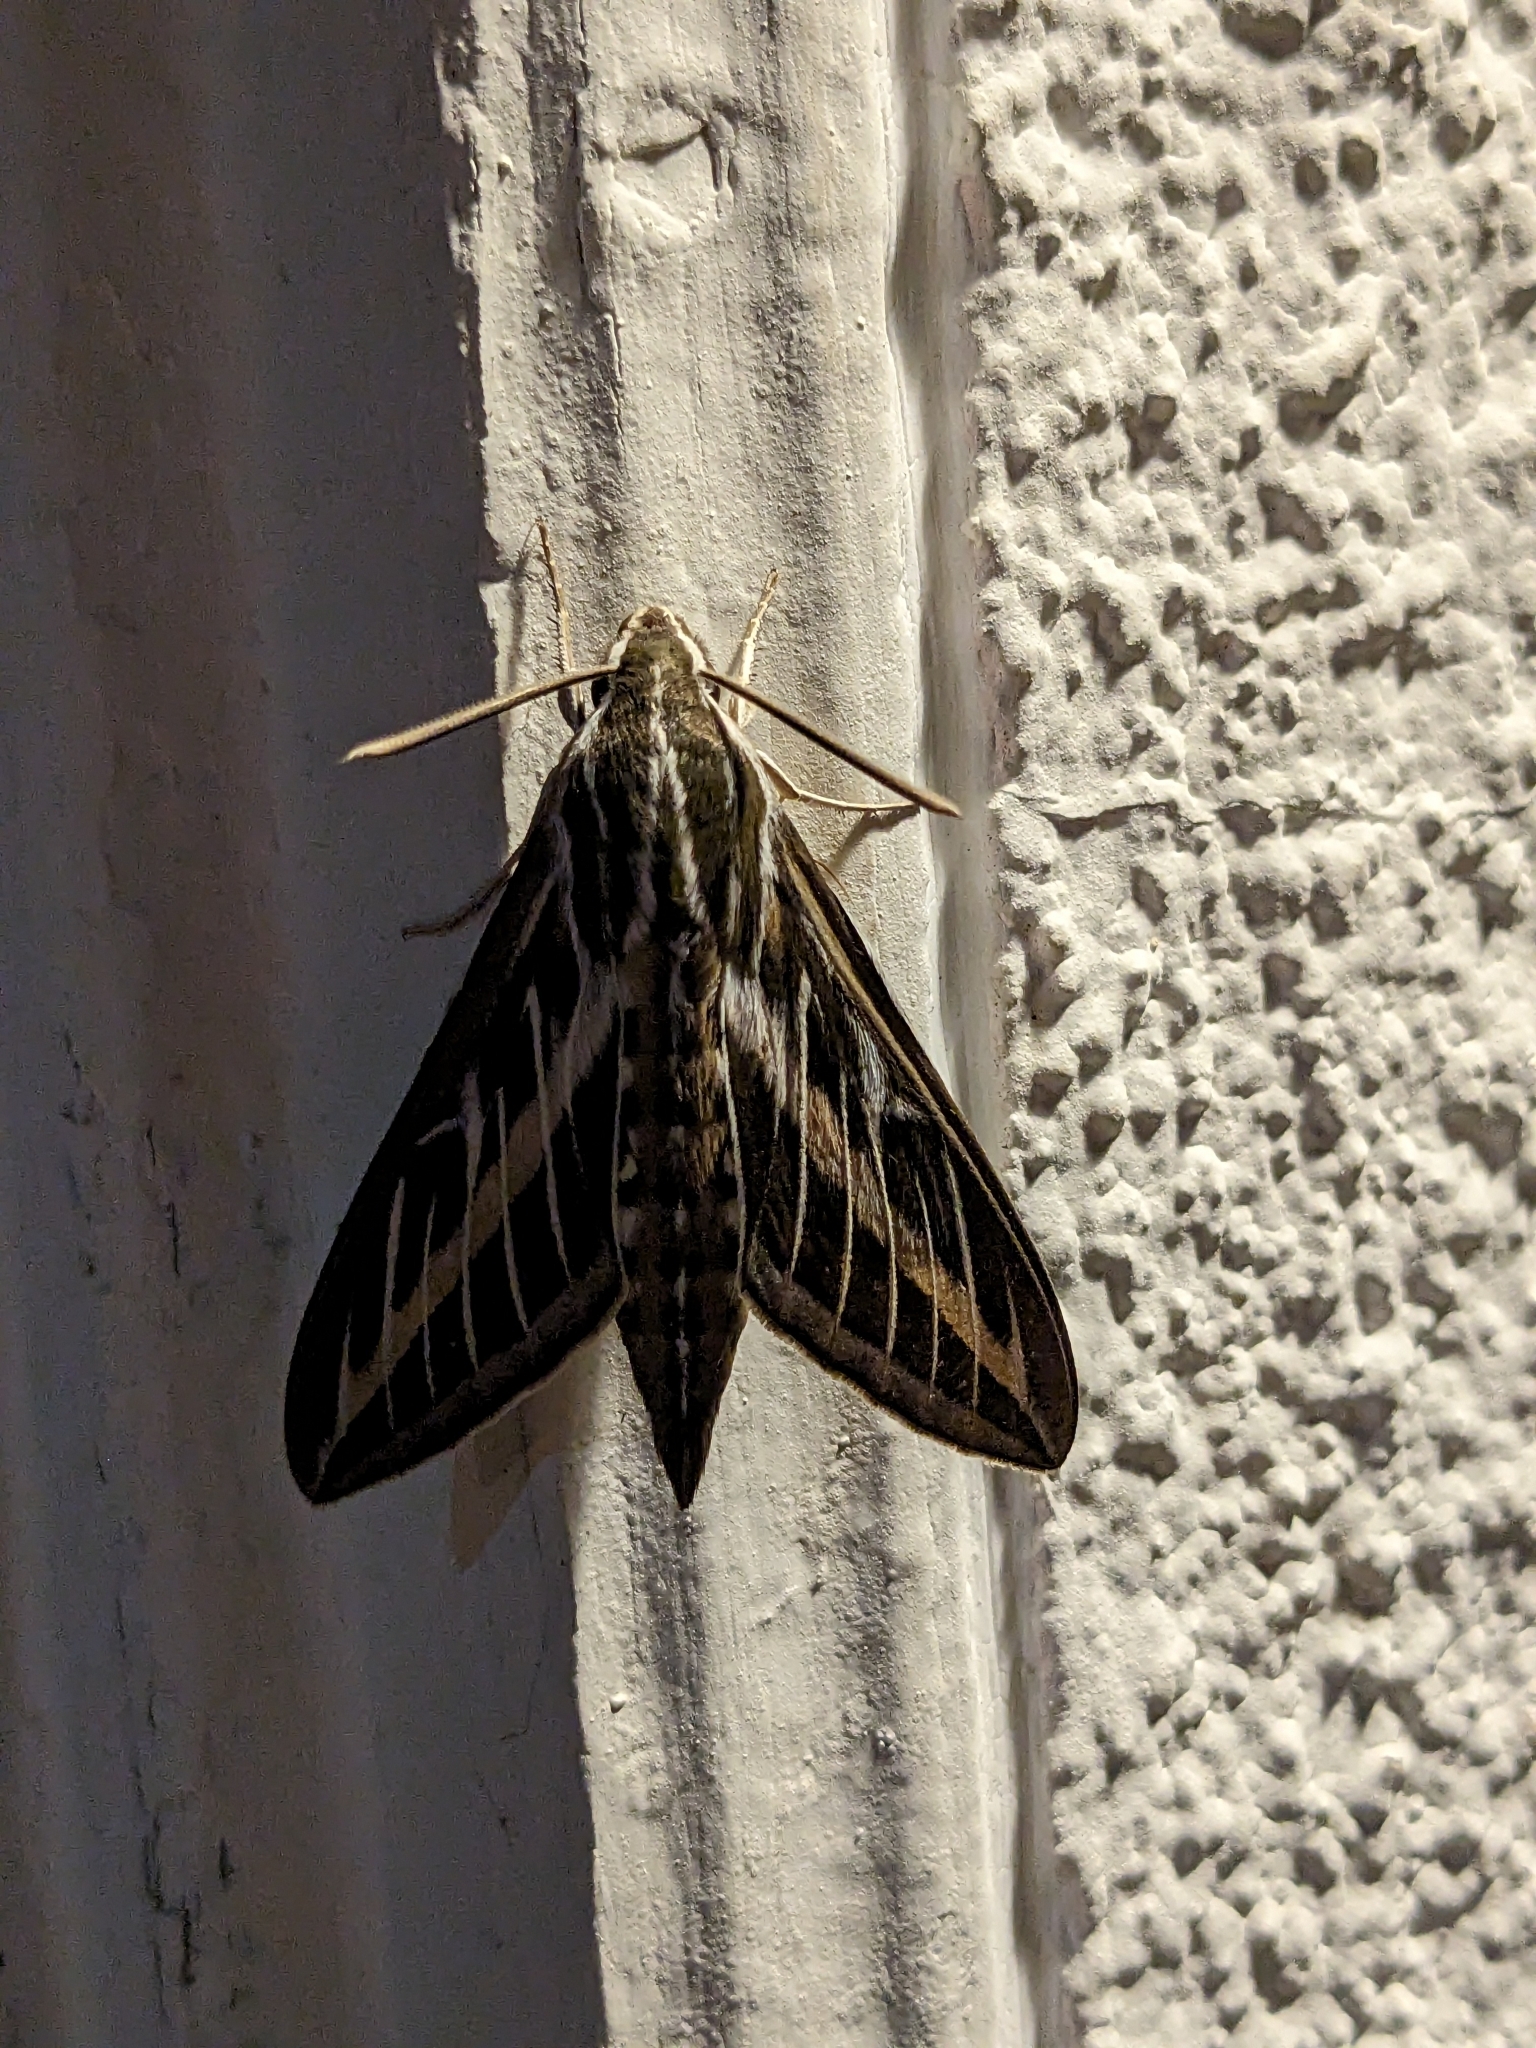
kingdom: Animalia
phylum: Arthropoda
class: Insecta
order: Lepidoptera
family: Sphingidae
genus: Hyles
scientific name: Hyles lineata
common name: White-lined sphinx
